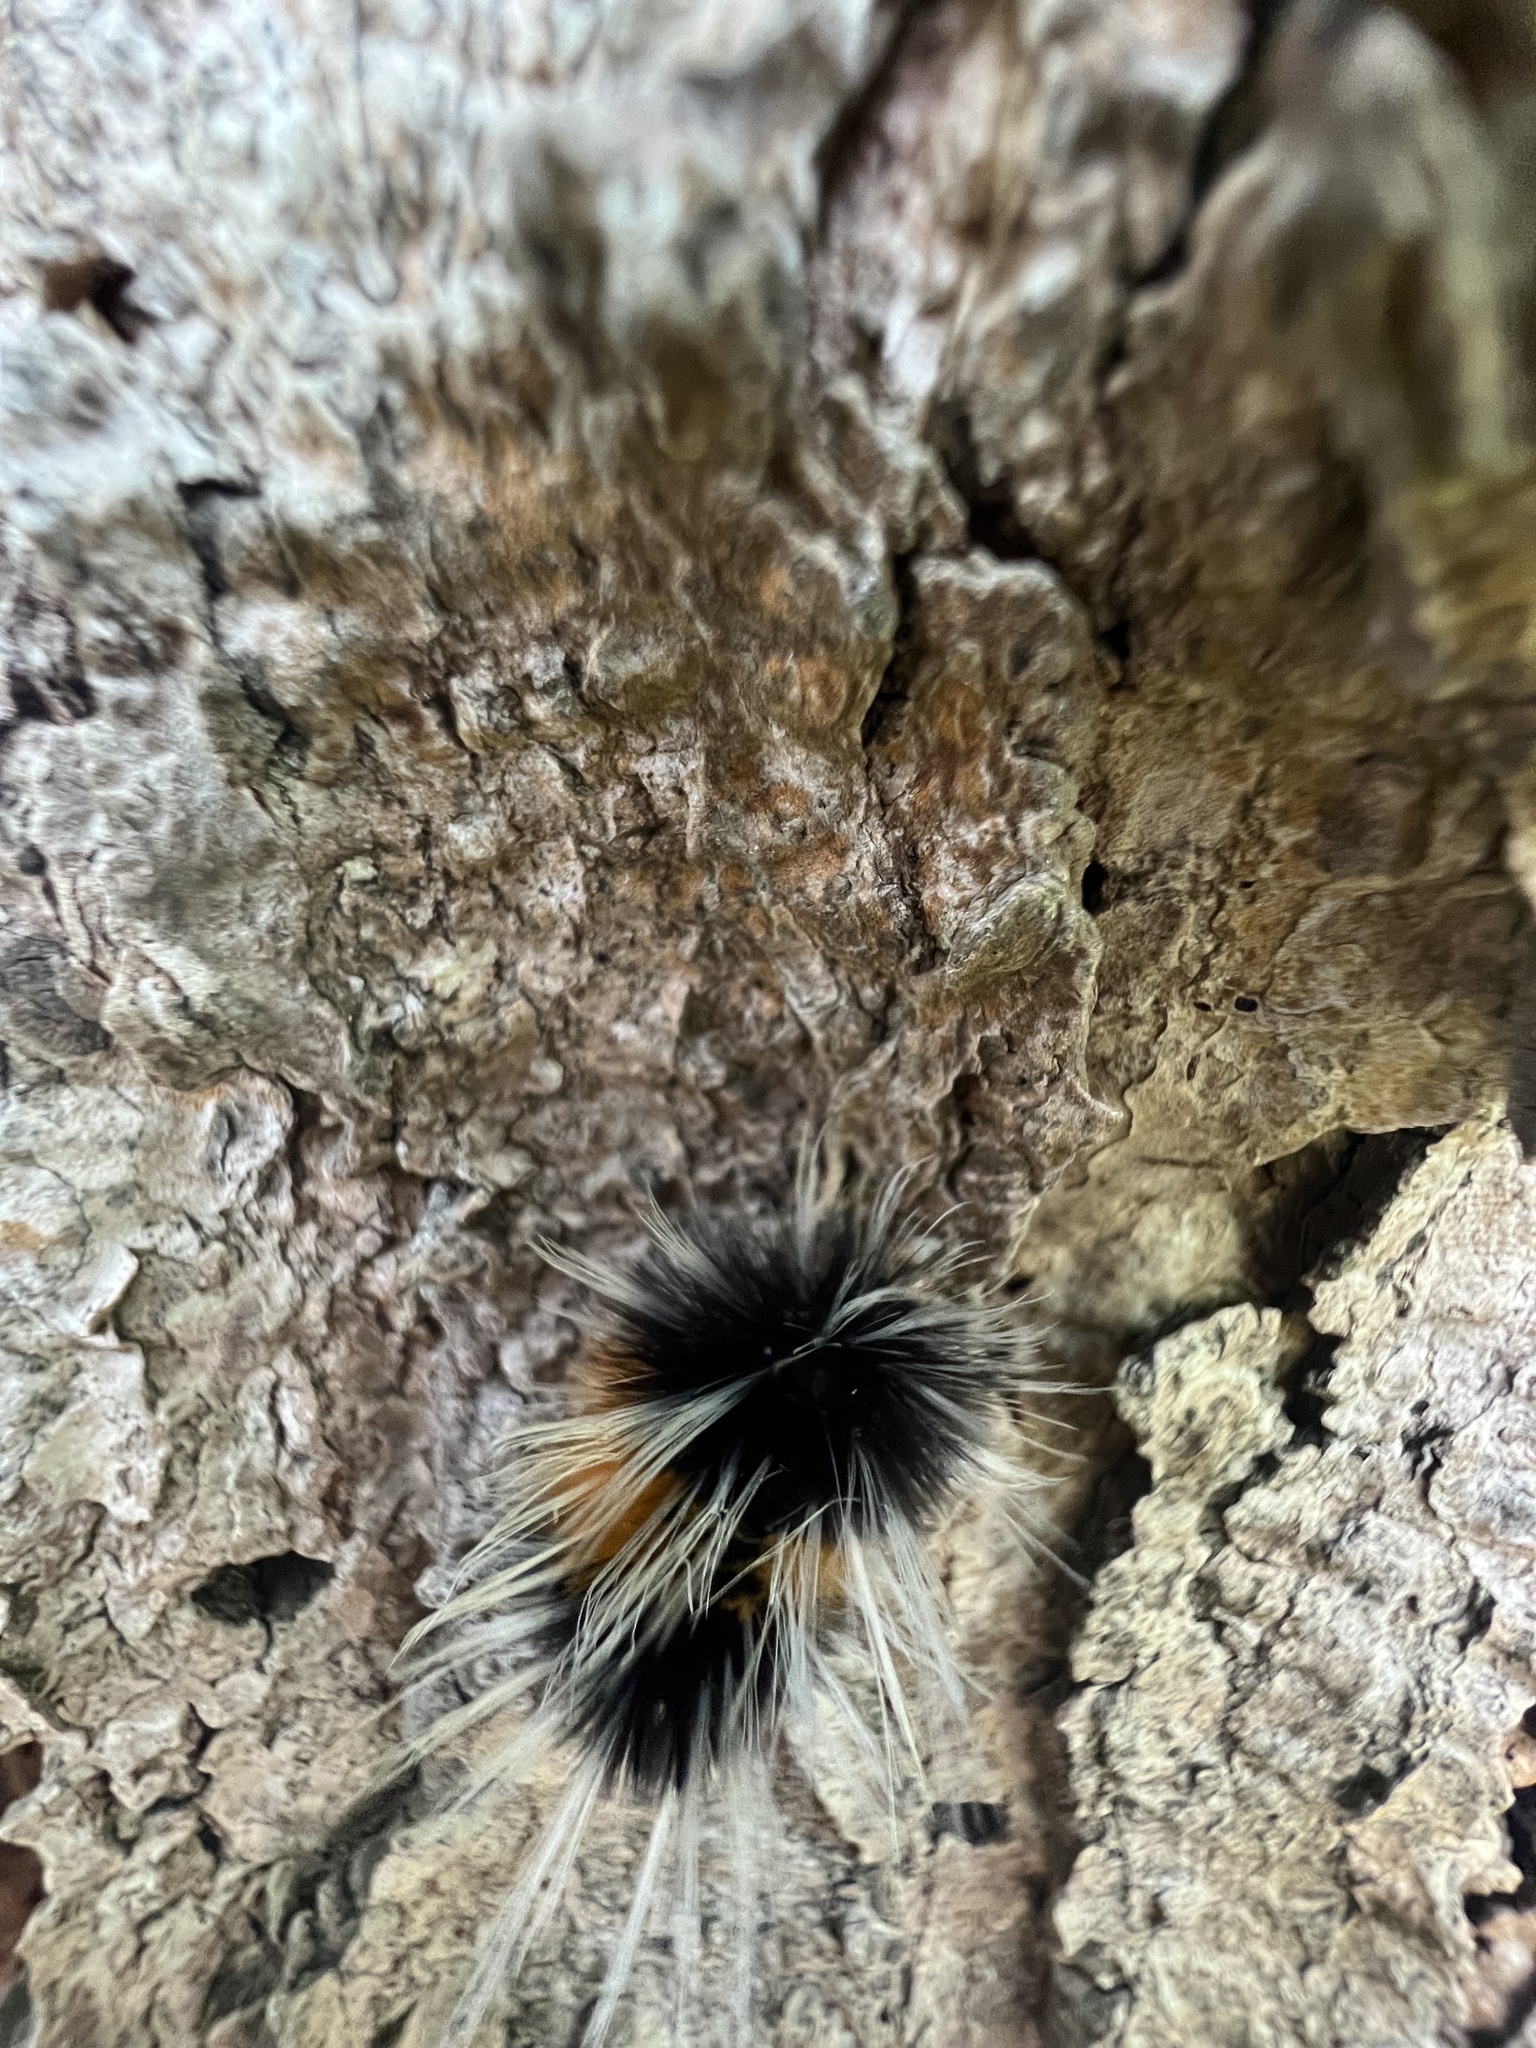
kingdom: Animalia
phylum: Arthropoda
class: Insecta
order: Lepidoptera
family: Erebidae
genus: Lophocampa
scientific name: Lophocampa maculata
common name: Spotted tussock moth
